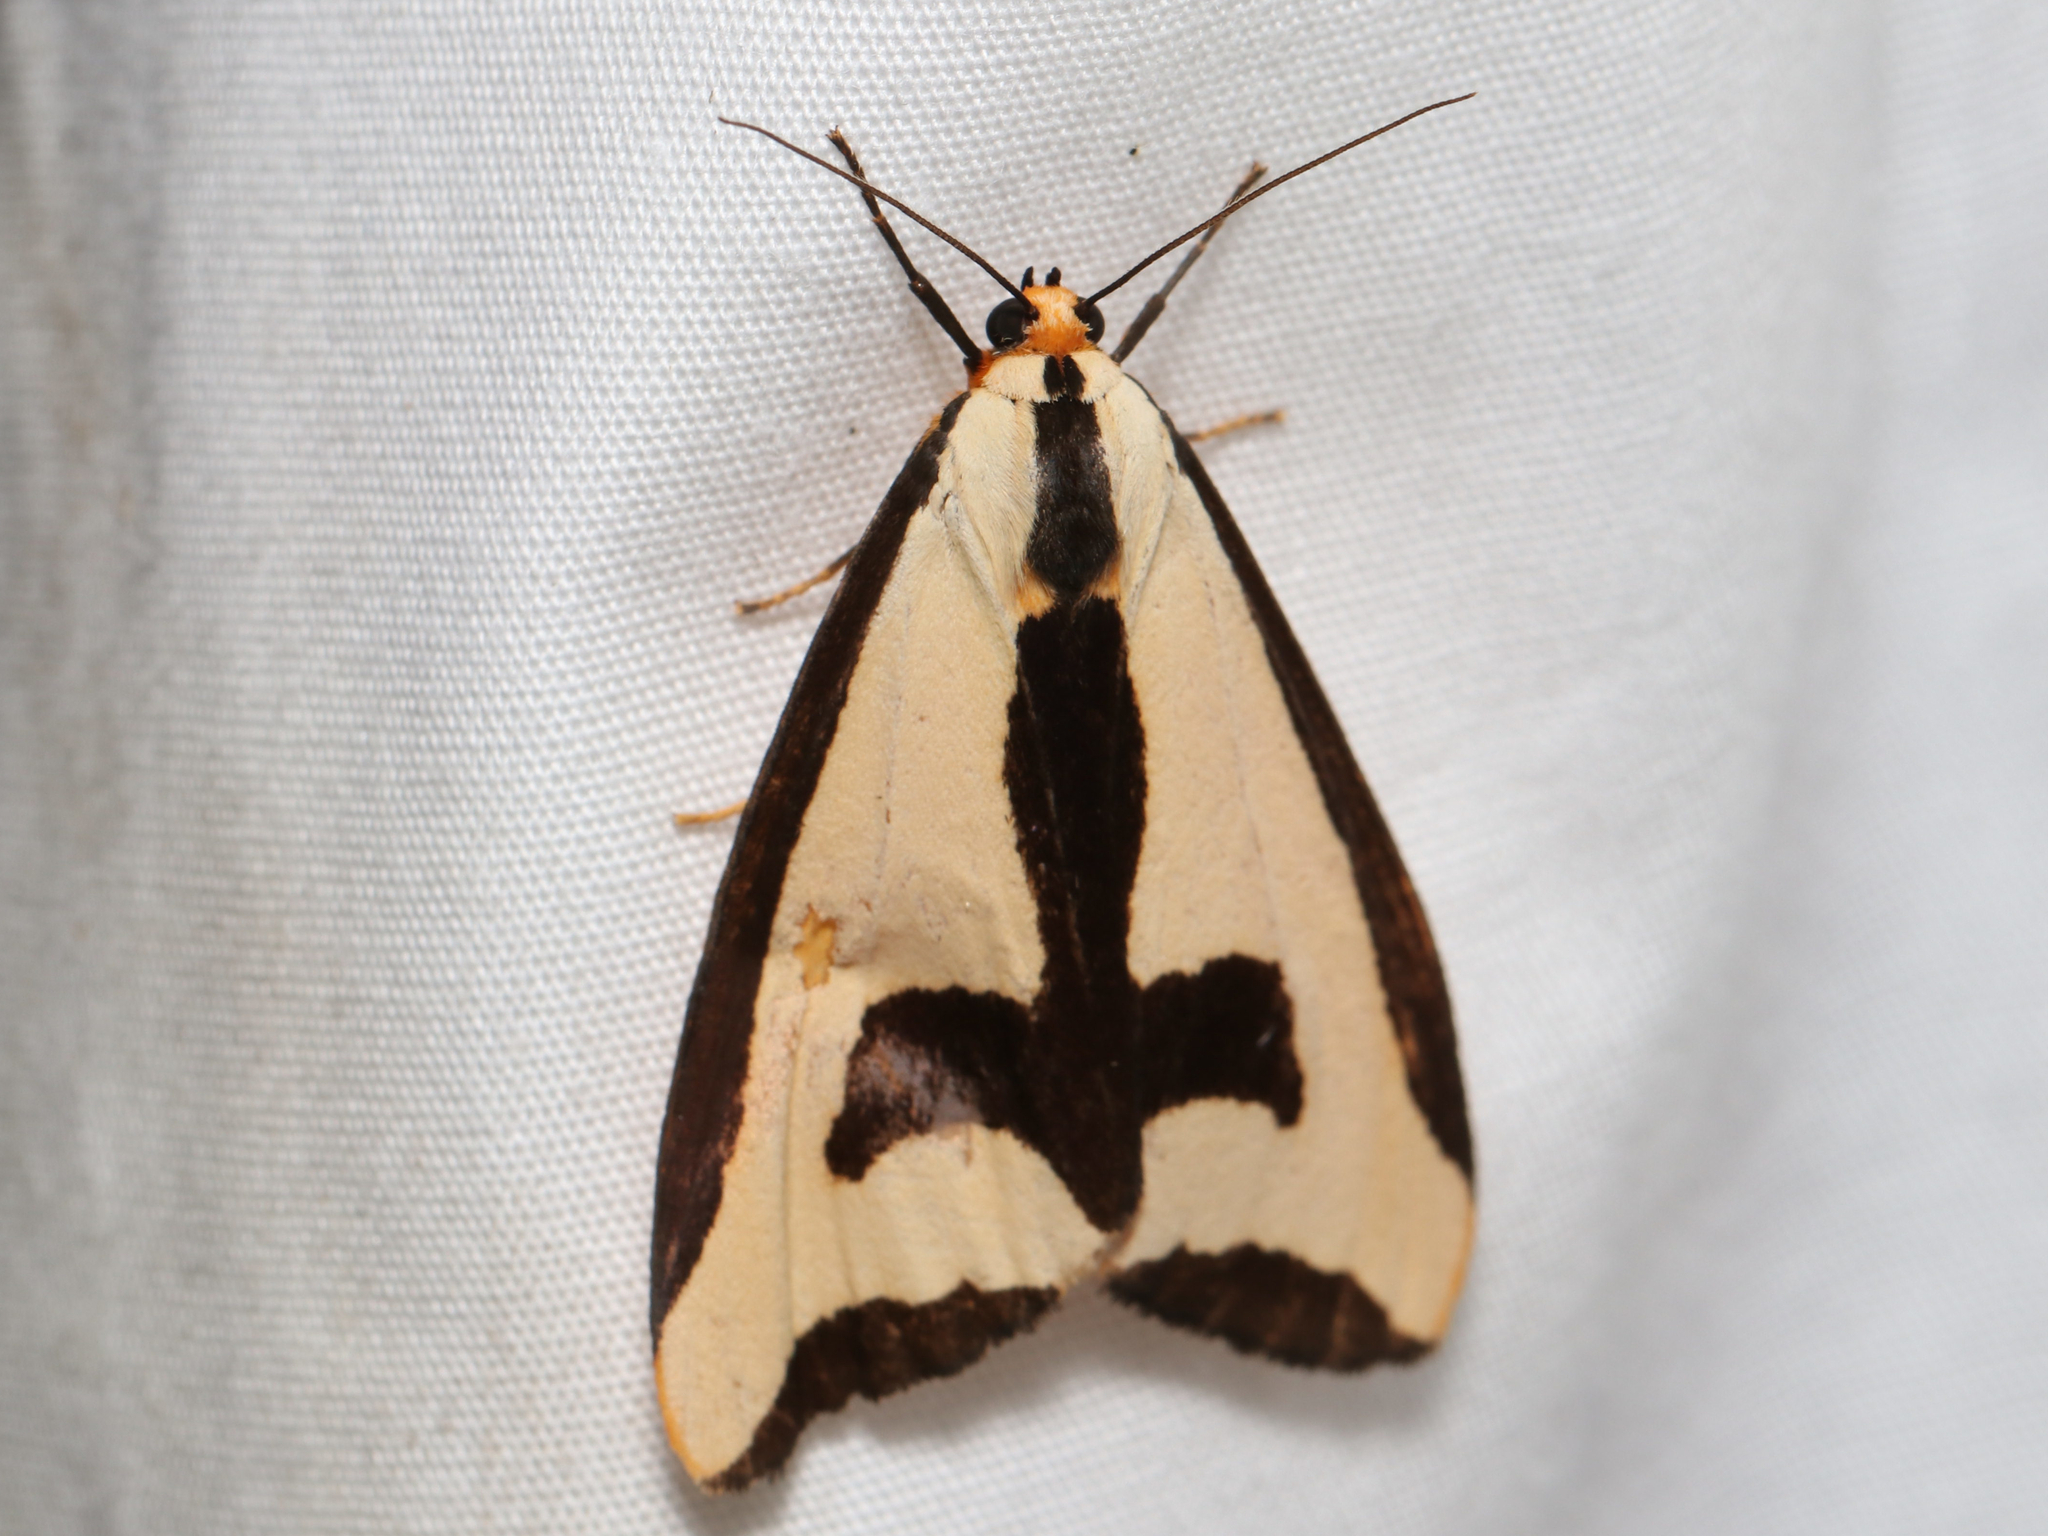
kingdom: Animalia
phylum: Arthropoda
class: Insecta
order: Lepidoptera
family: Erebidae
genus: Haploa
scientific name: Haploa clymene
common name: Clymene moth
